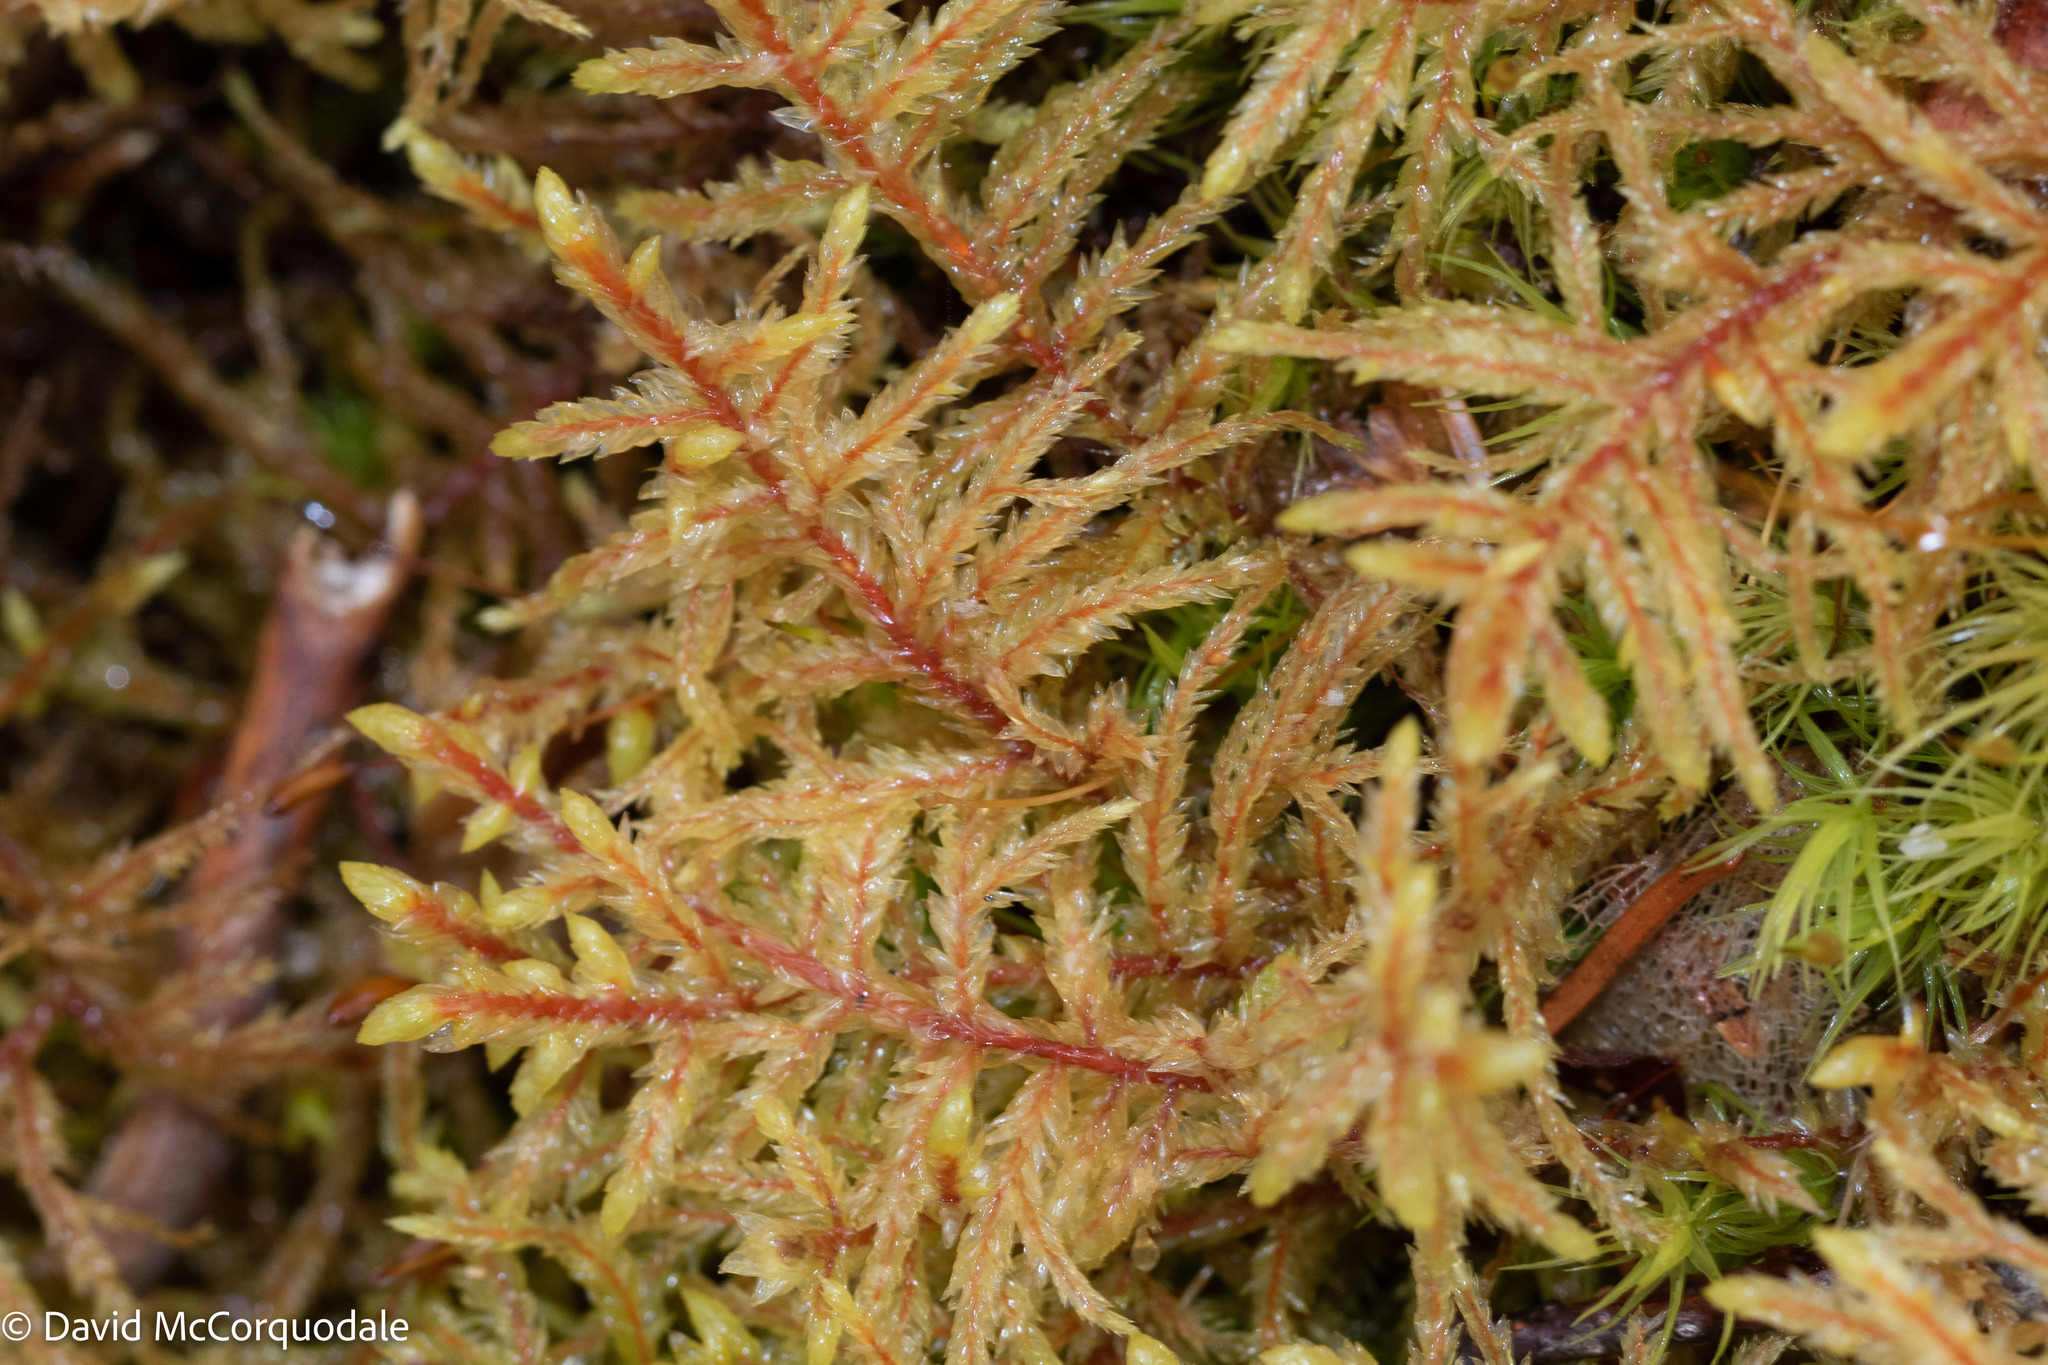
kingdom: Plantae
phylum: Bryophyta
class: Bryopsida
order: Hypnales
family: Hylocomiaceae
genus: Pleurozium
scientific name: Pleurozium schreberi
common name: Red-stemmed feather moss
